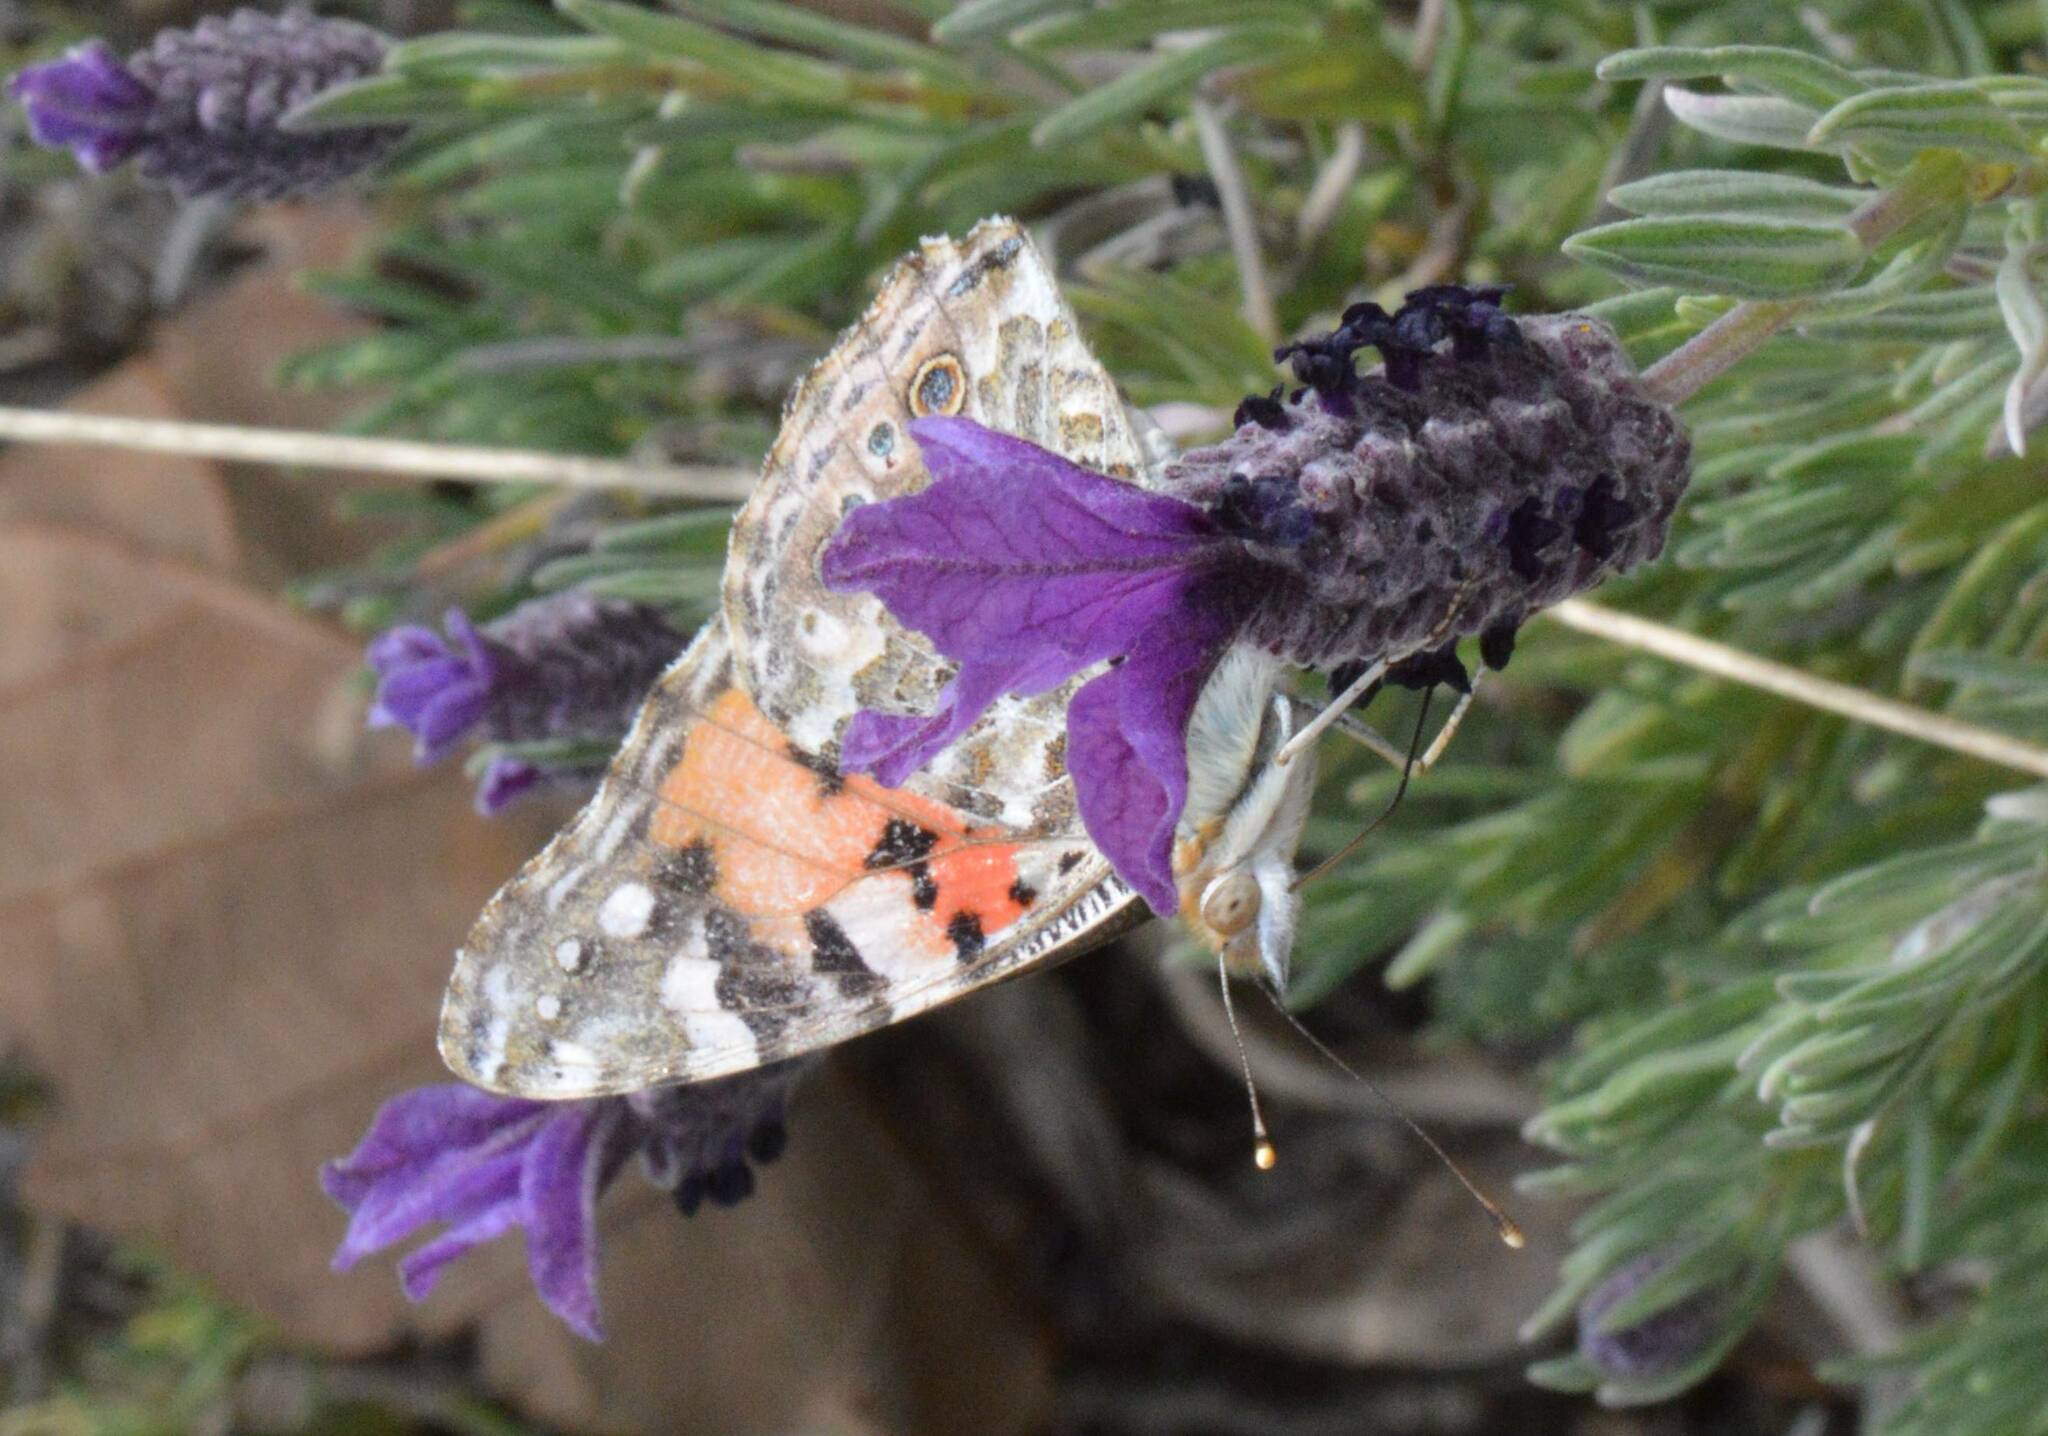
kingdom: Animalia
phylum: Arthropoda
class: Insecta
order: Lepidoptera
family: Nymphalidae
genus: Vanessa
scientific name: Vanessa cardui
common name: Painted lady
